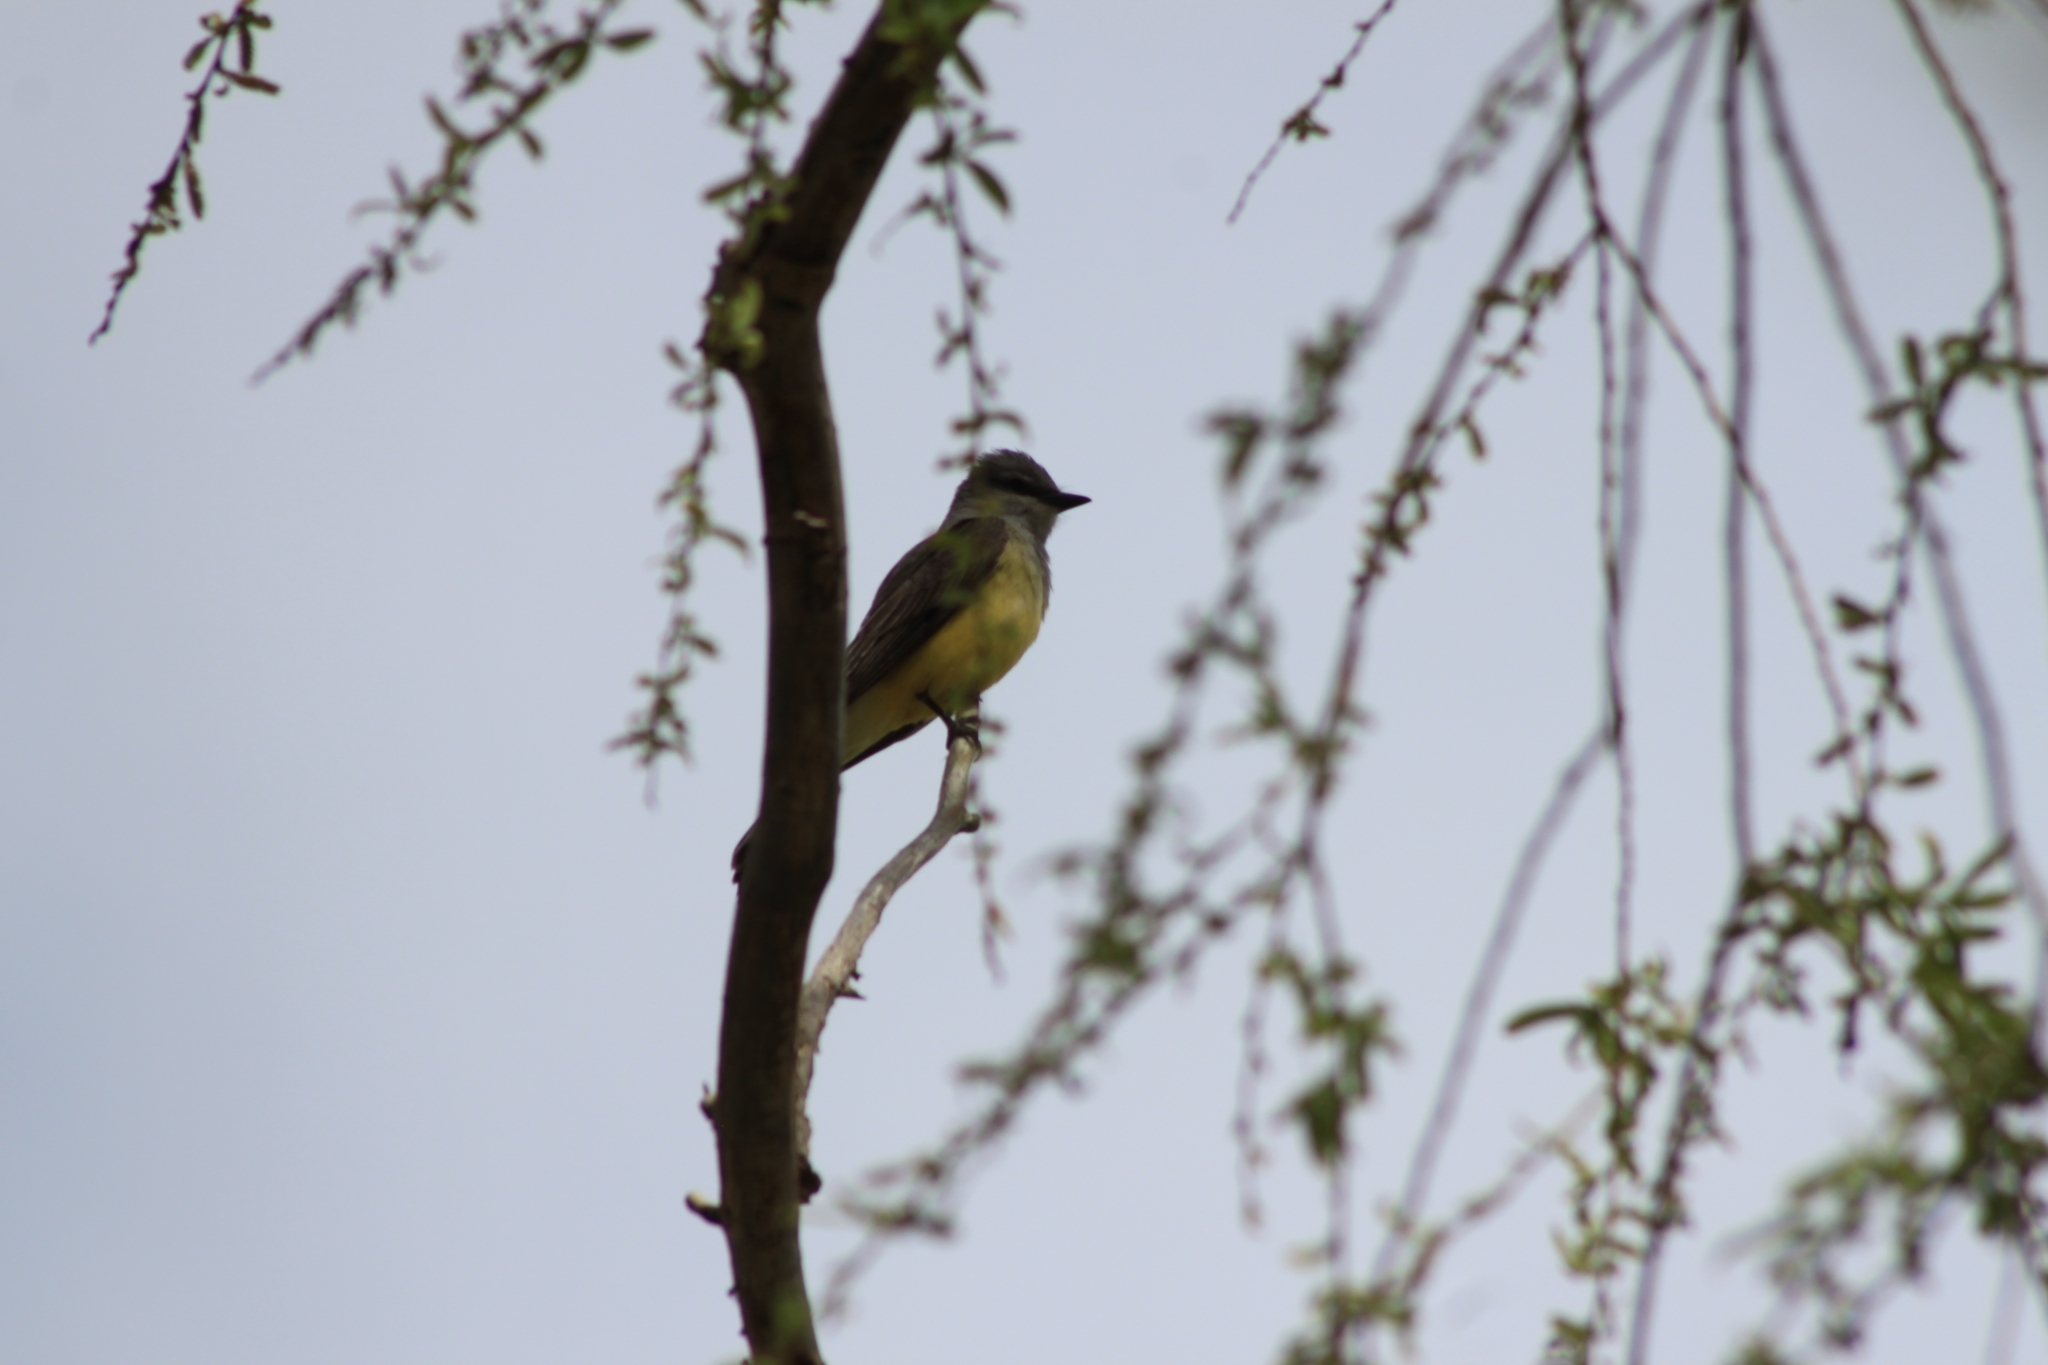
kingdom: Animalia
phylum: Chordata
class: Aves
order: Passeriformes
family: Tyrannidae
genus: Tyrannus
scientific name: Tyrannus verticalis
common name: Western kingbird
